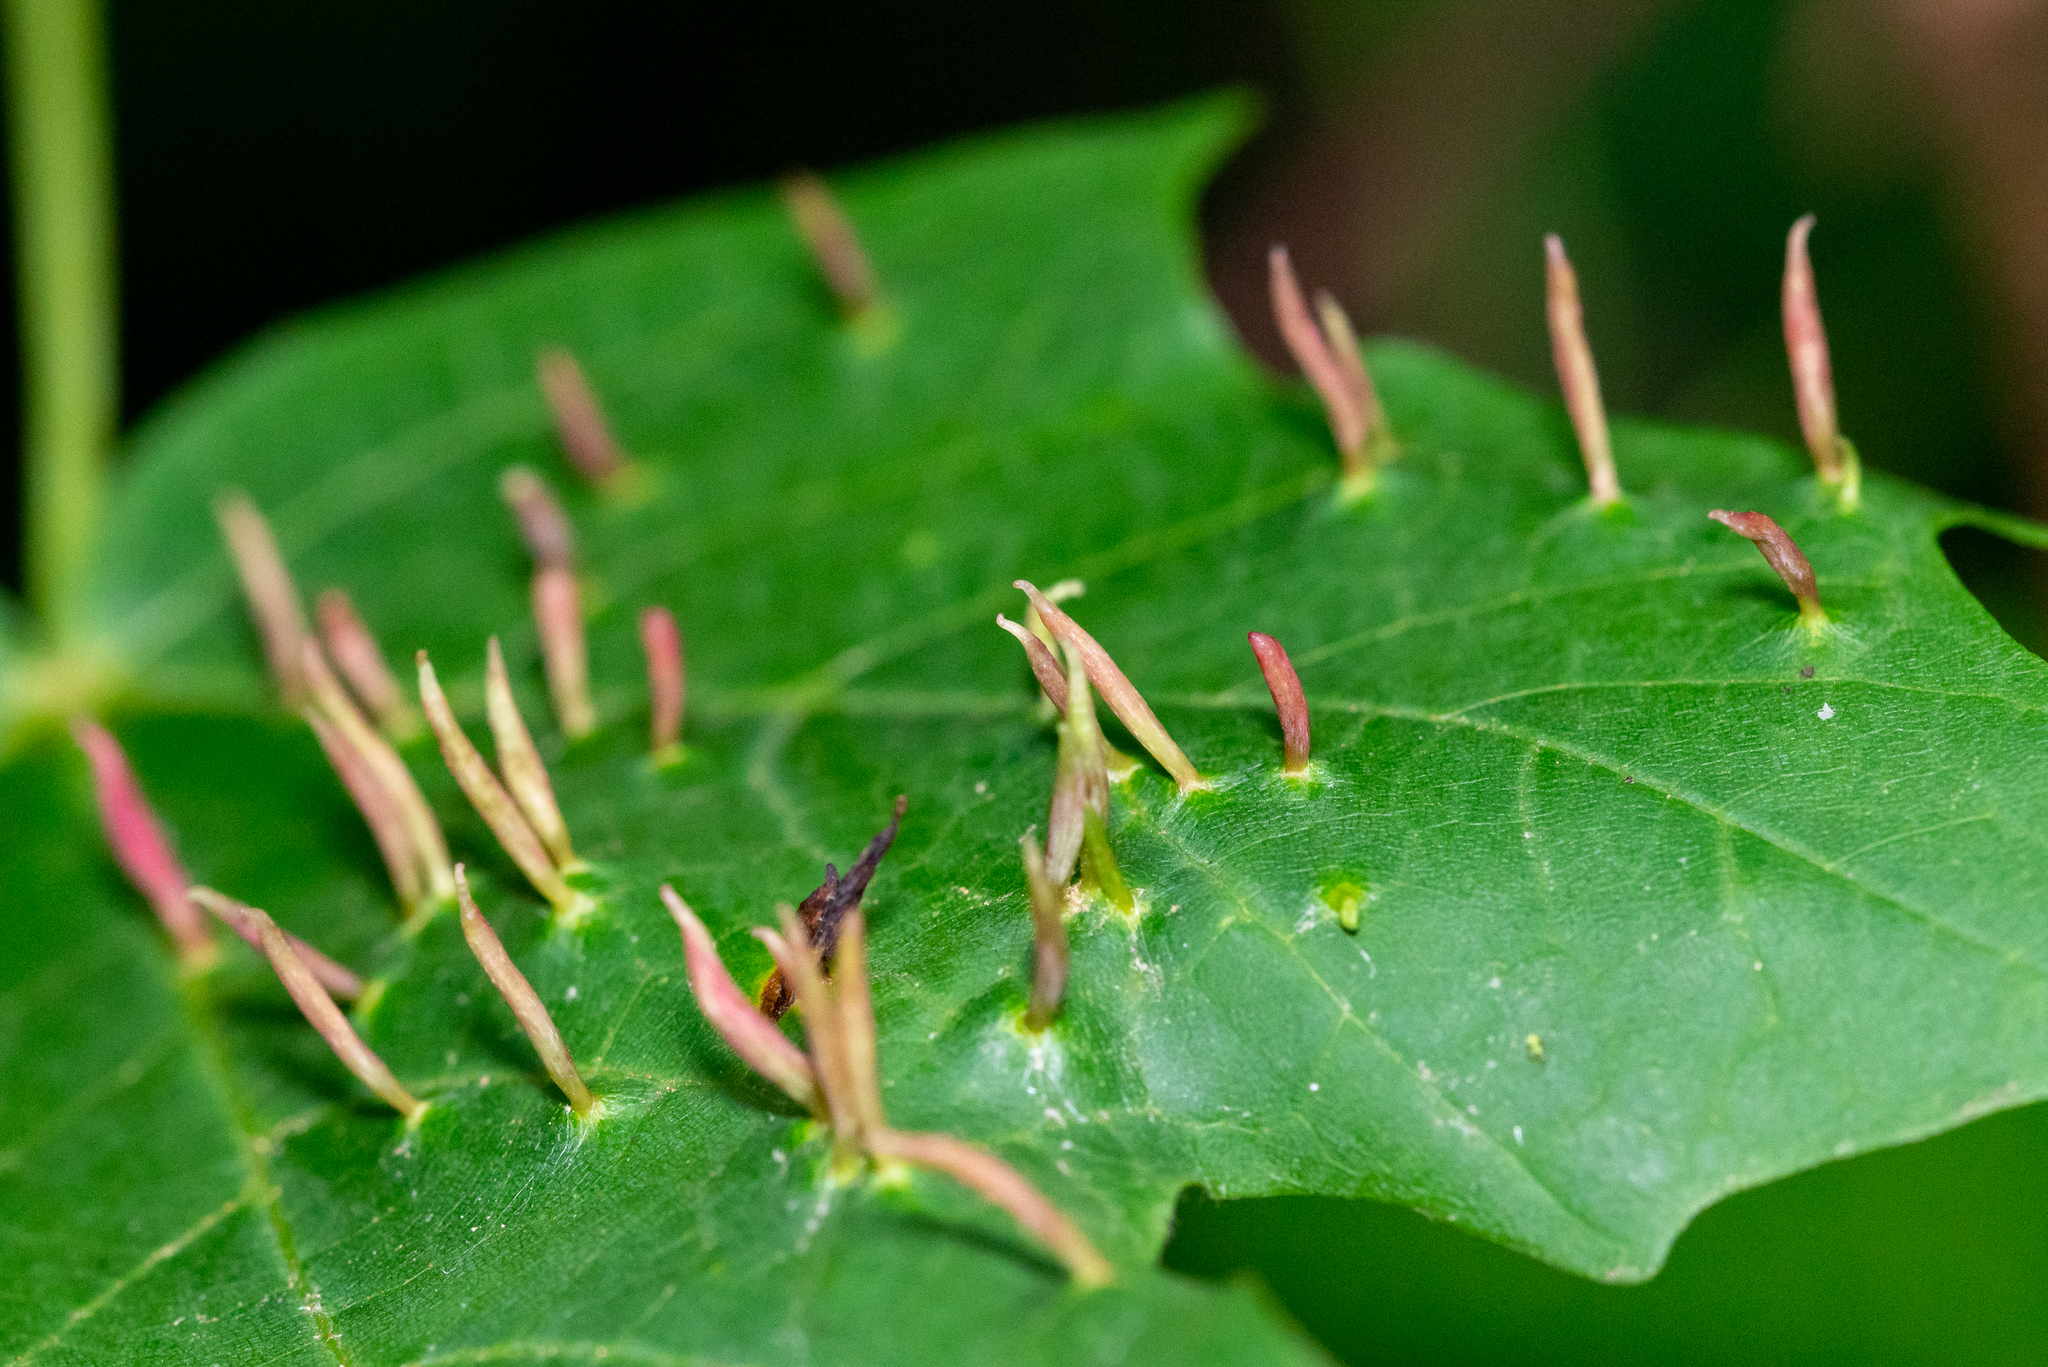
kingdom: Animalia
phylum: Arthropoda
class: Arachnida
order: Trombidiformes
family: Eriophyidae
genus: Vasates
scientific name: Vasates aceriscrumena
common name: Maple spindle gall mite
